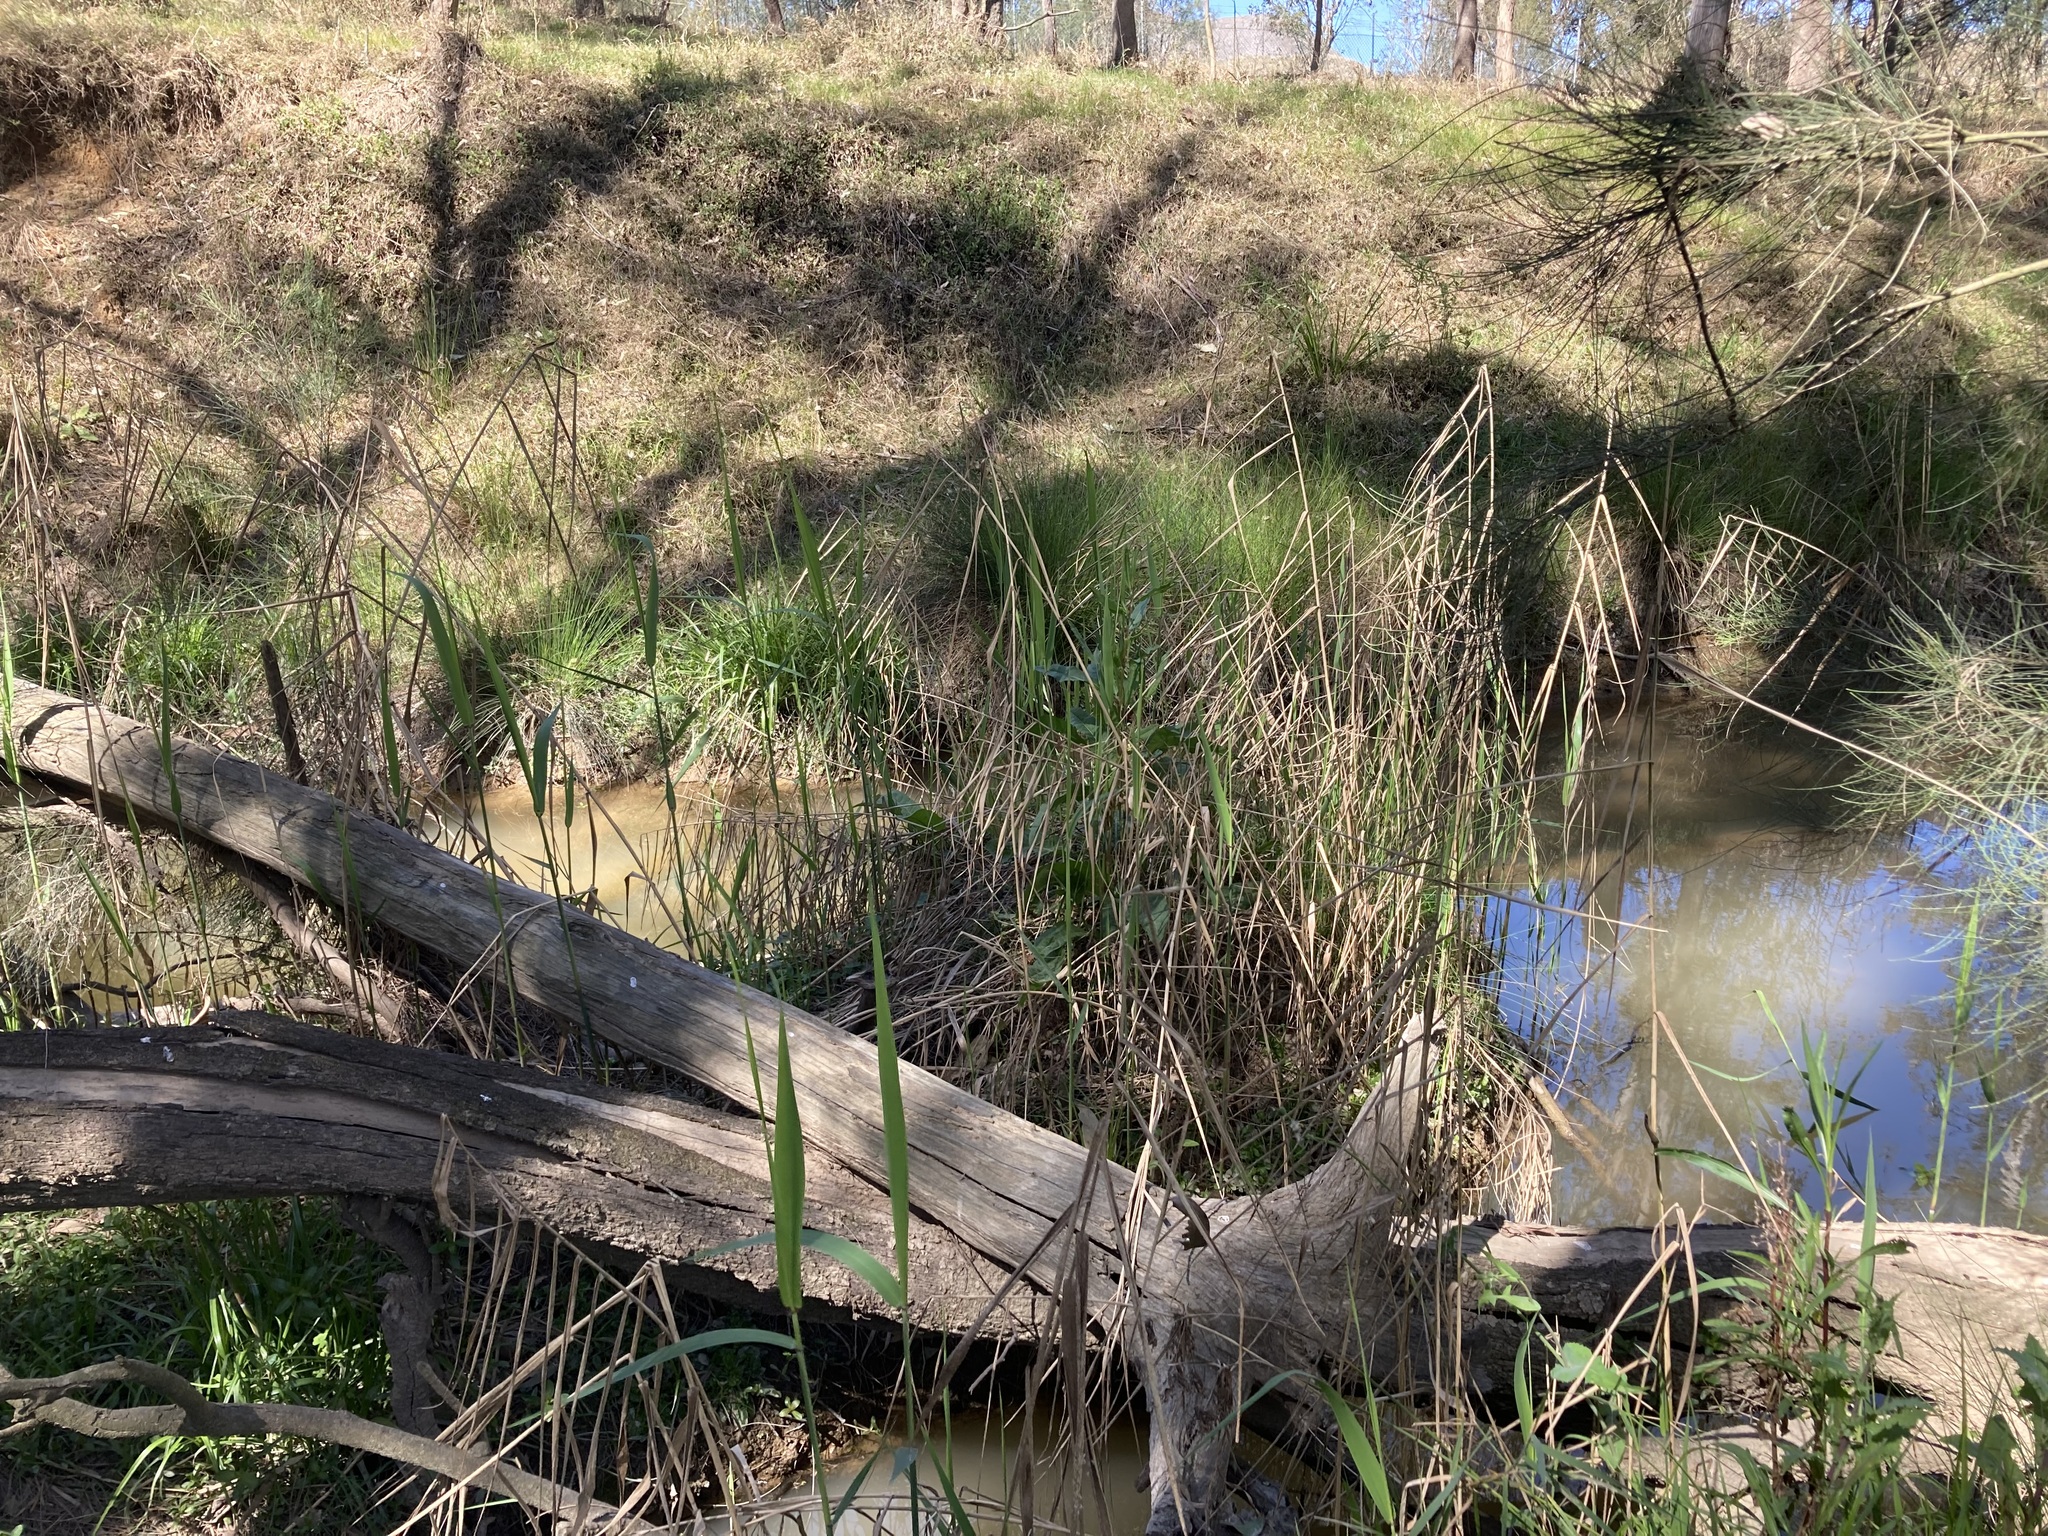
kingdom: Plantae
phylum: Tracheophyta
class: Liliopsida
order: Poales
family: Poaceae
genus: Phragmites
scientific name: Phragmites australis
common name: Common reed
